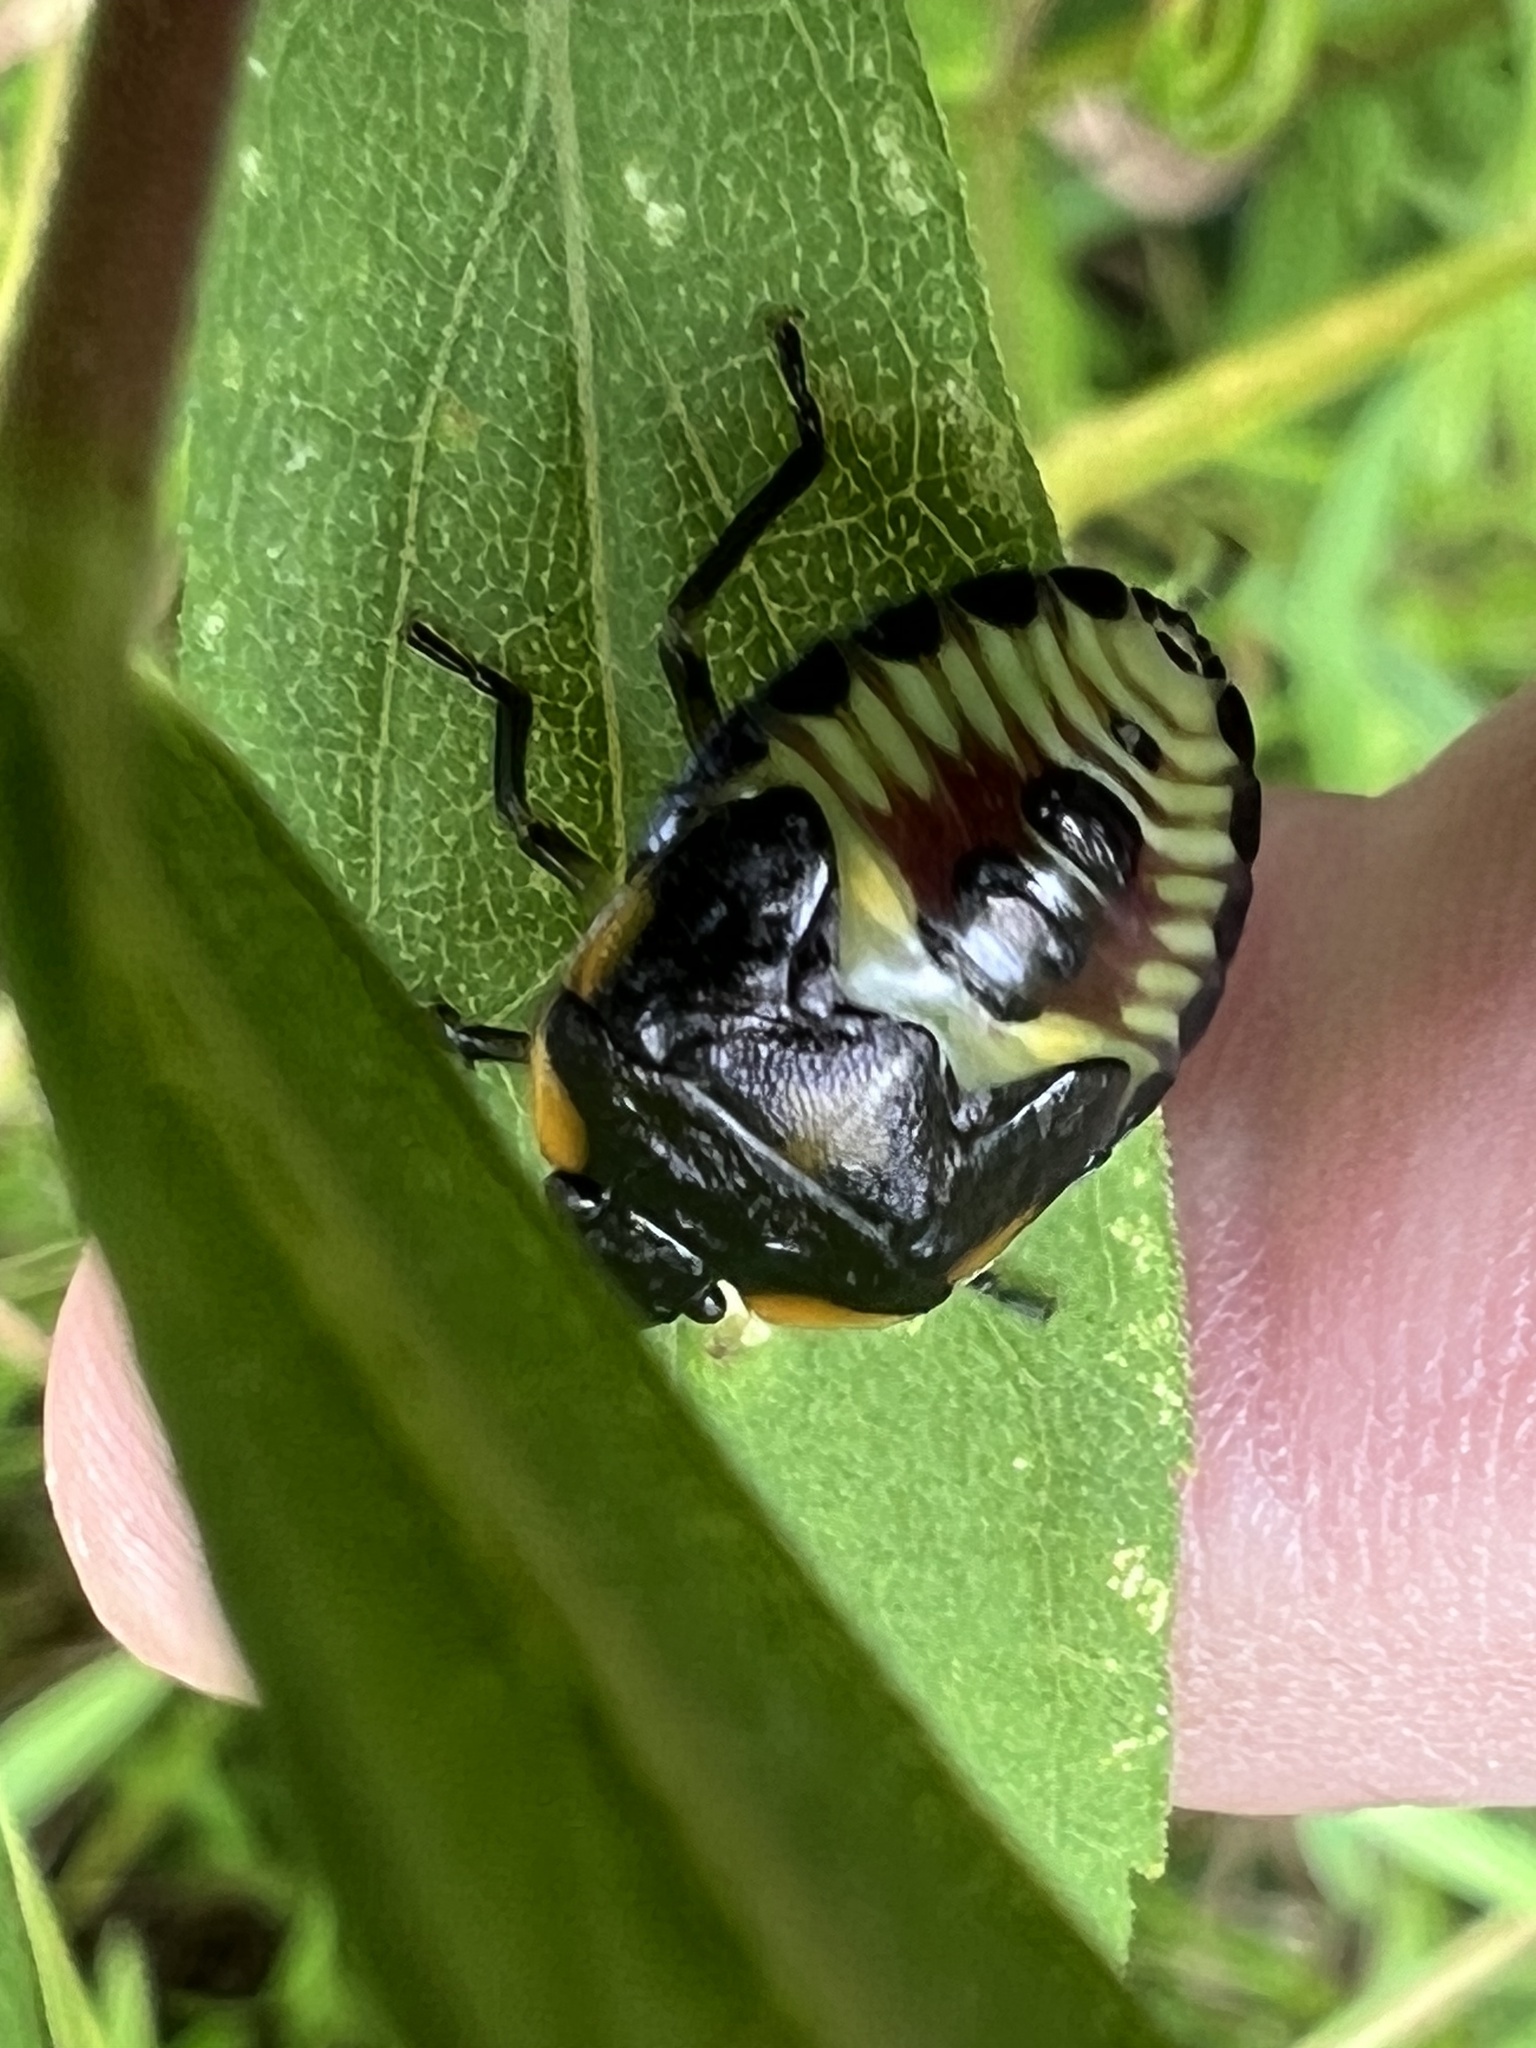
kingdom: Animalia
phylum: Arthropoda
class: Insecta
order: Hemiptera
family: Pentatomidae
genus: Chinavia
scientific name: Chinavia hilaris
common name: Green stink bug
